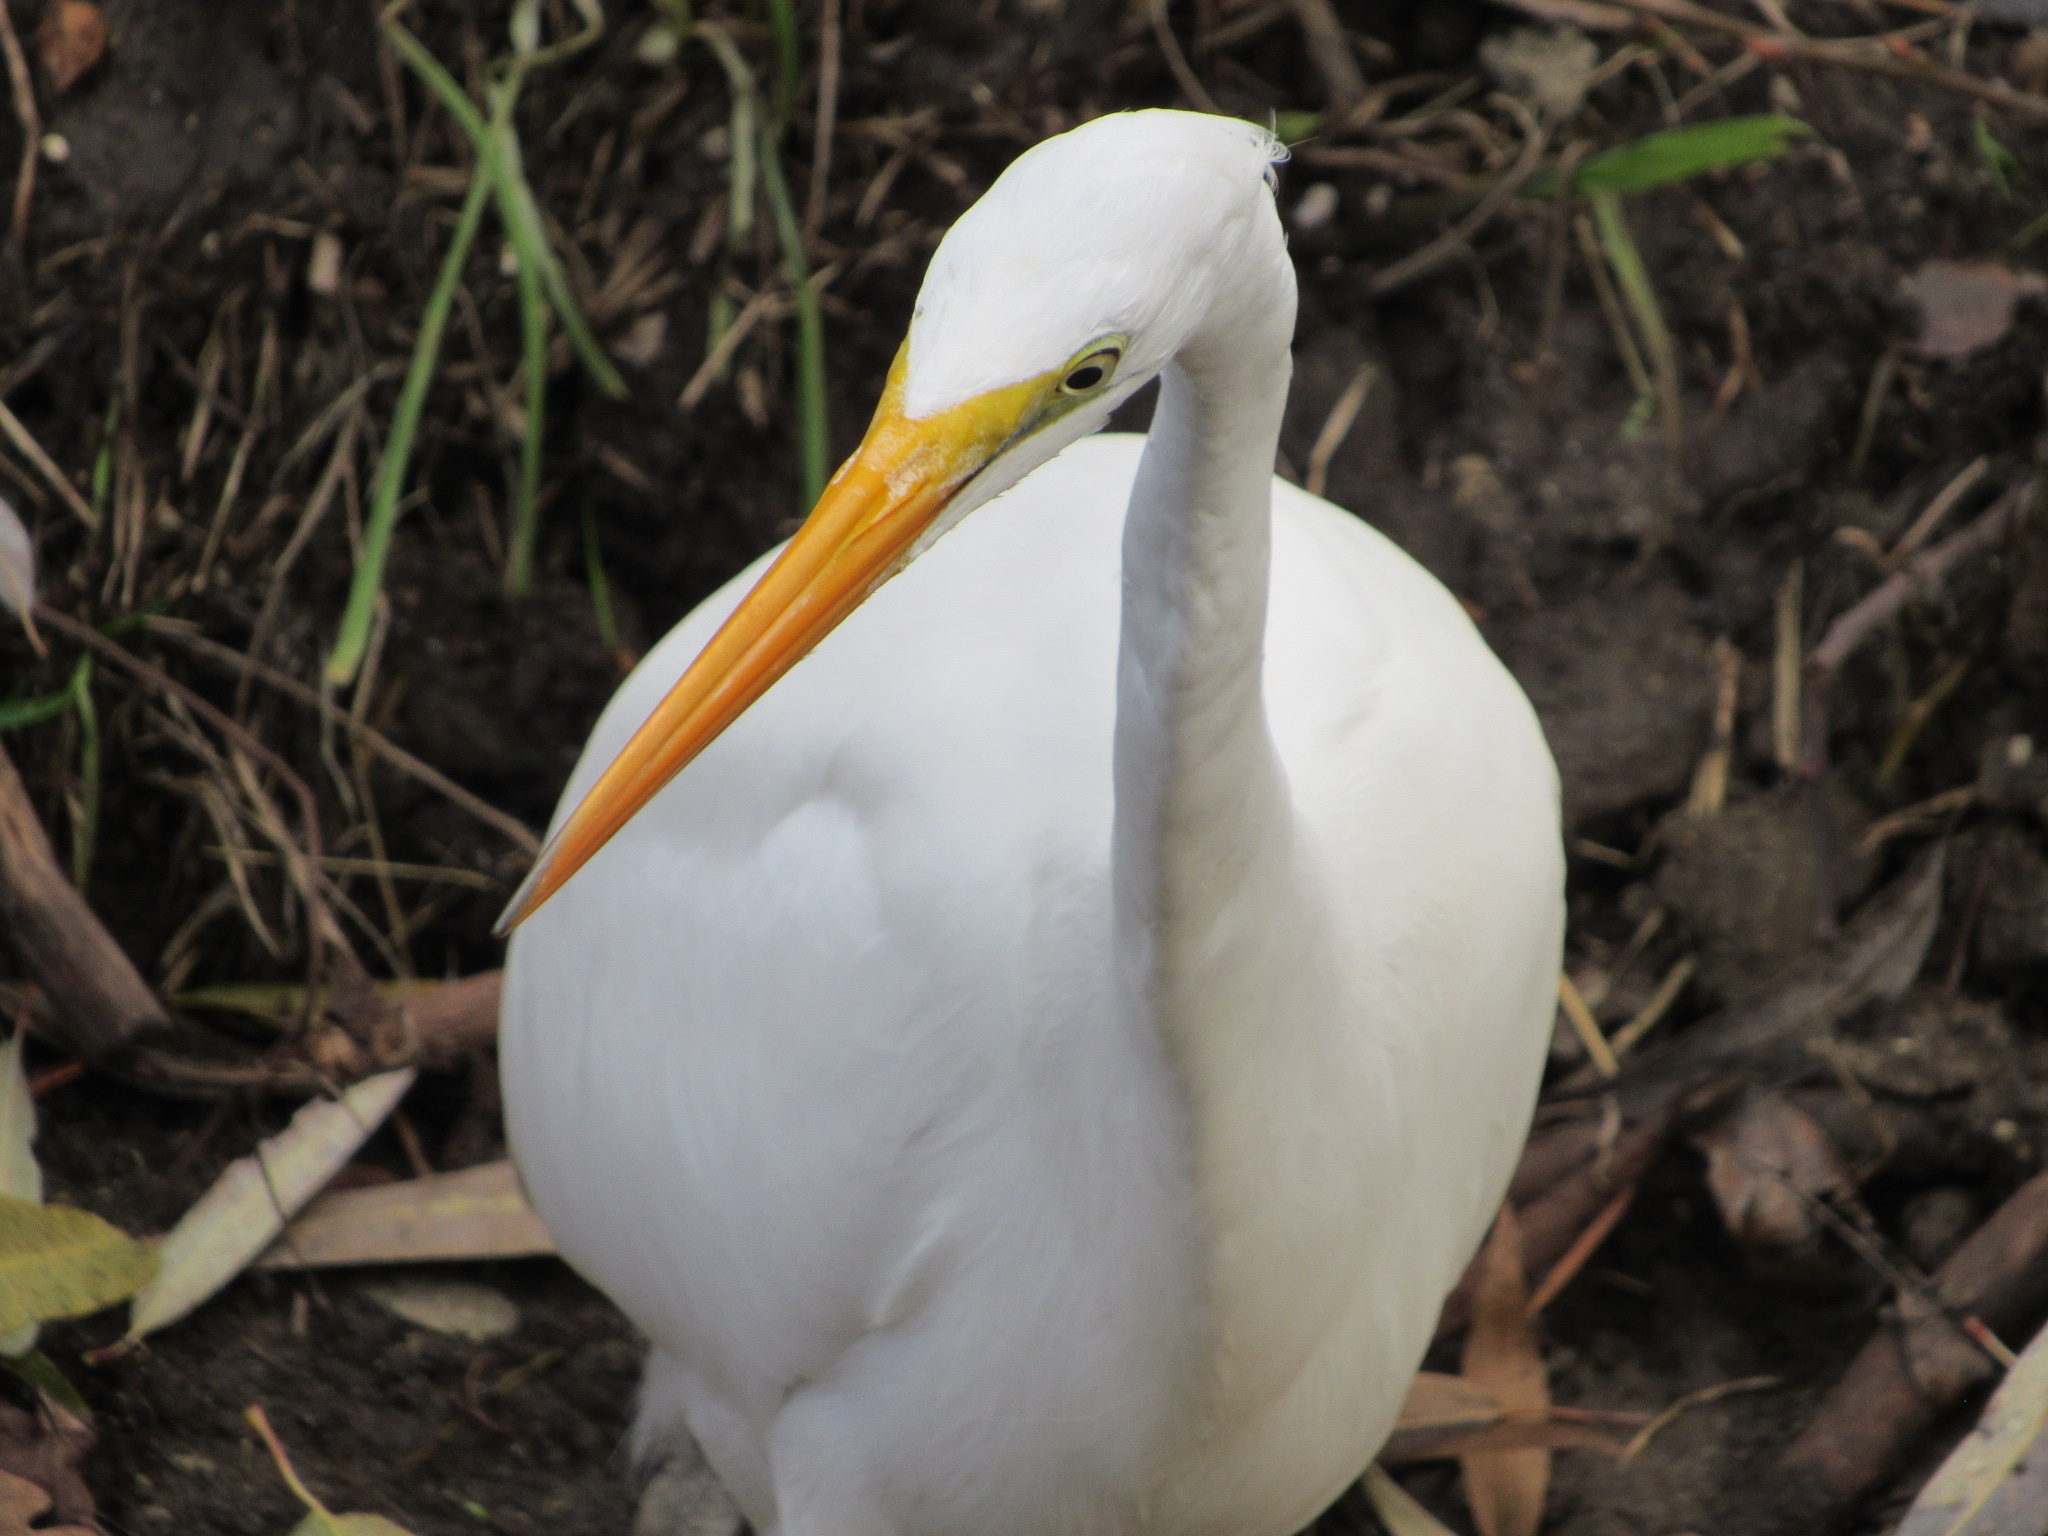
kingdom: Animalia
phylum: Chordata
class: Aves
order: Pelecaniformes
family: Ardeidae
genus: Ardea
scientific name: Ardea alba
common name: Great egret
